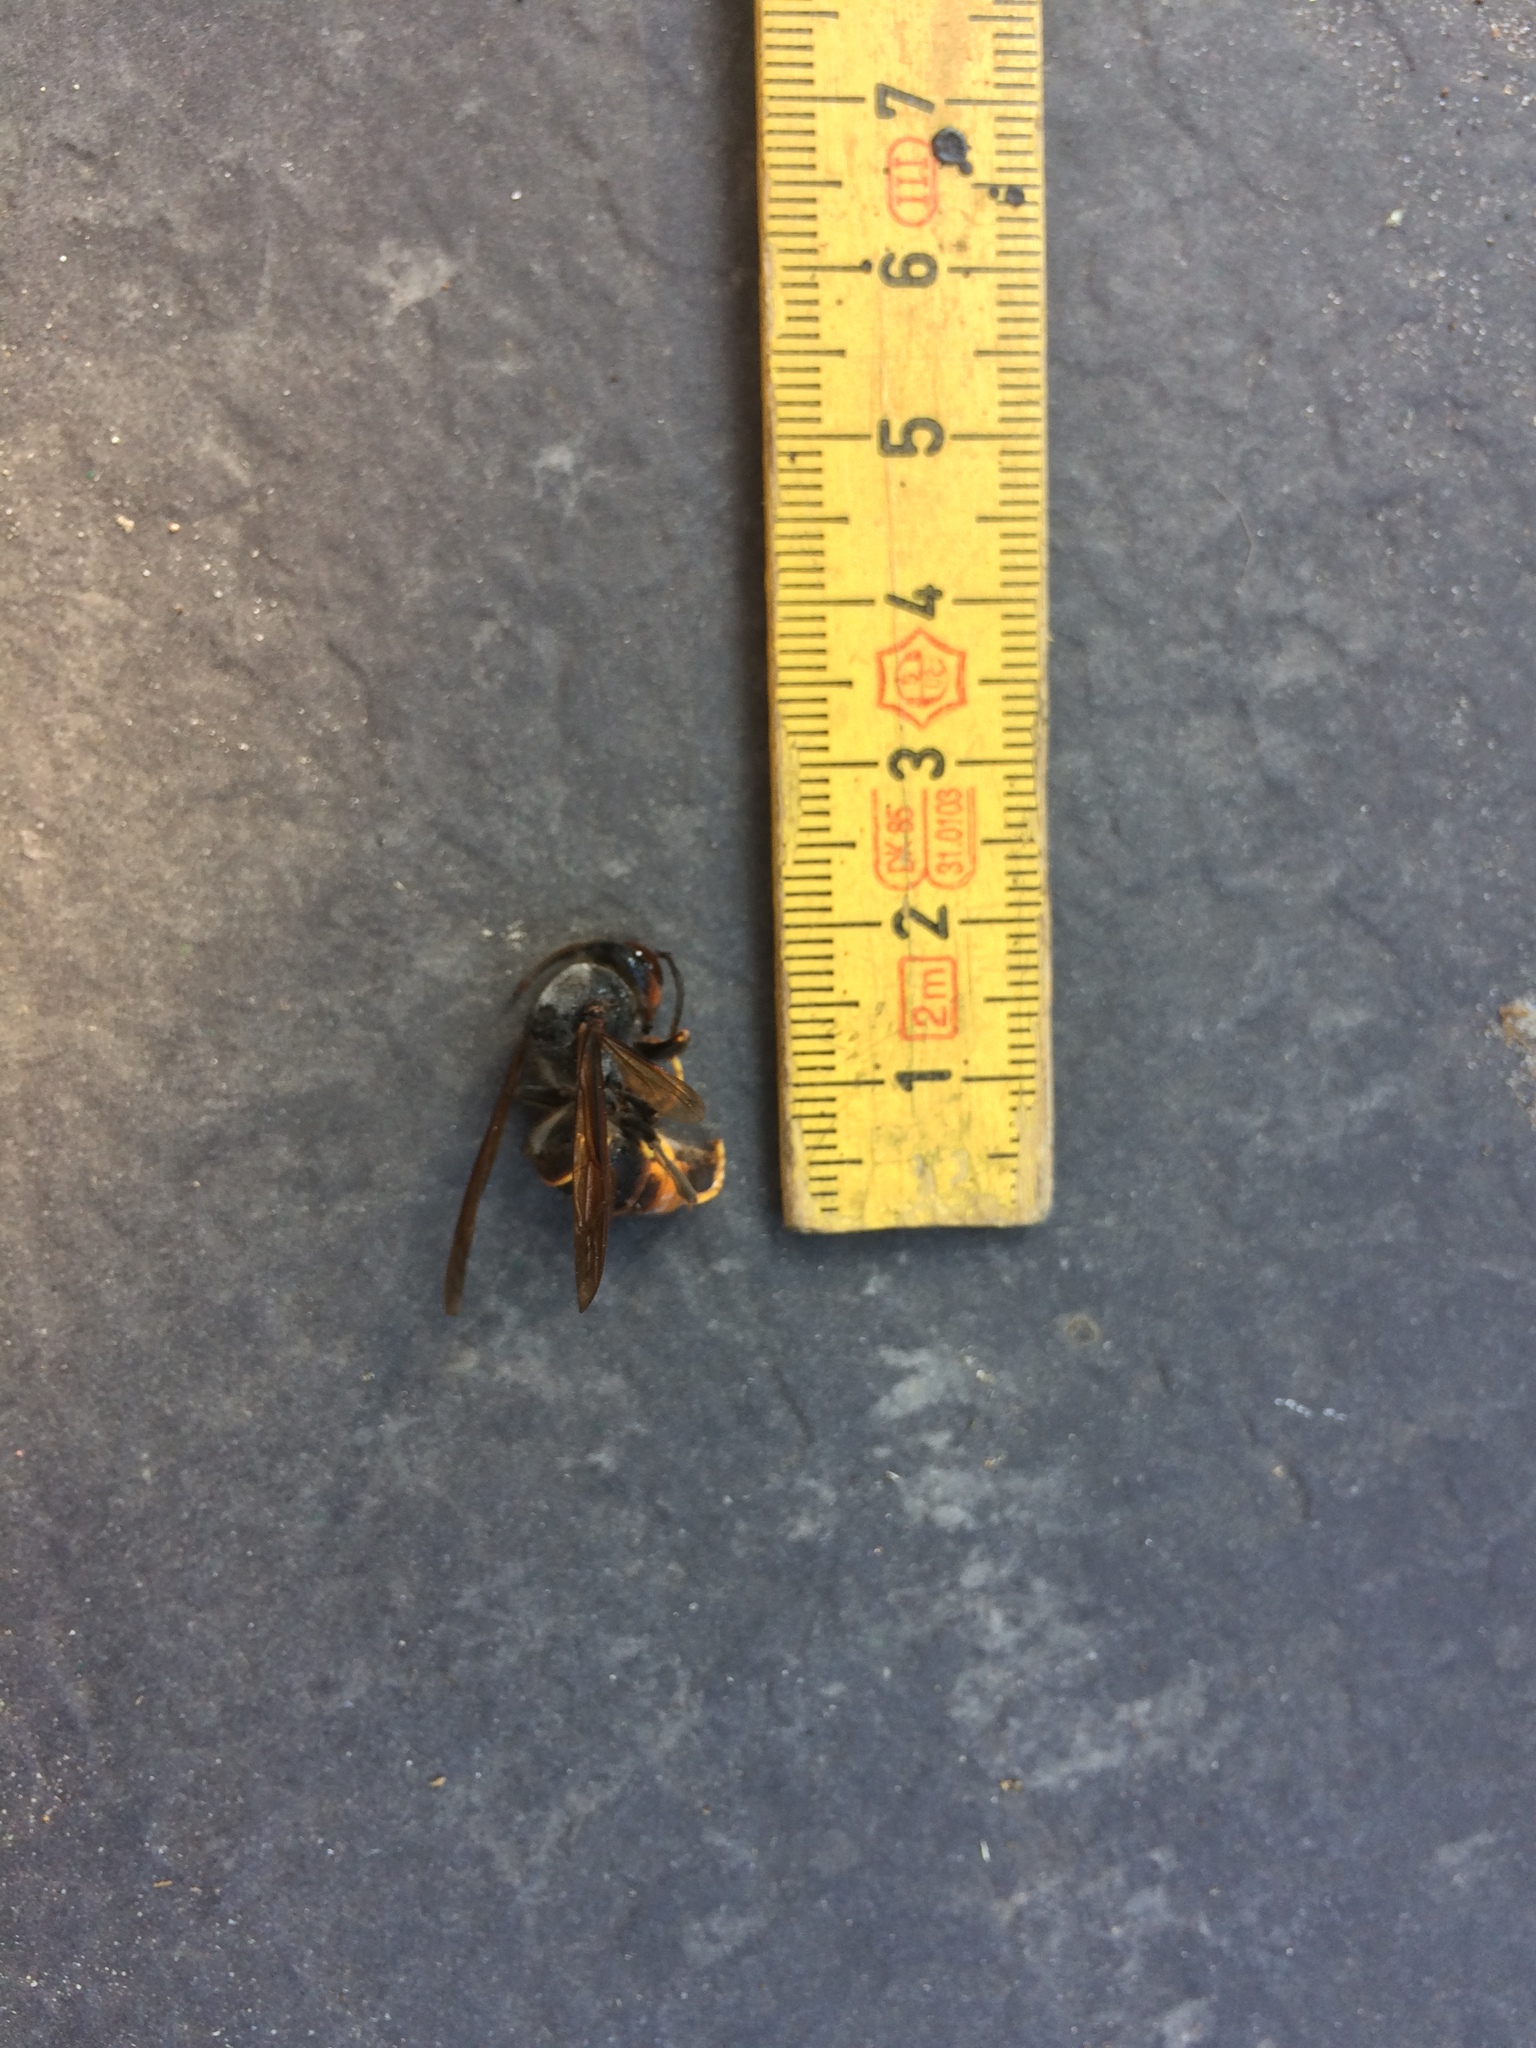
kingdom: Animalia
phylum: Arthropoda
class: Insecta
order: Hymenoptera
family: Vespidae
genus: Vespa
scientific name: Vespa velutina
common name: Asian hornet
